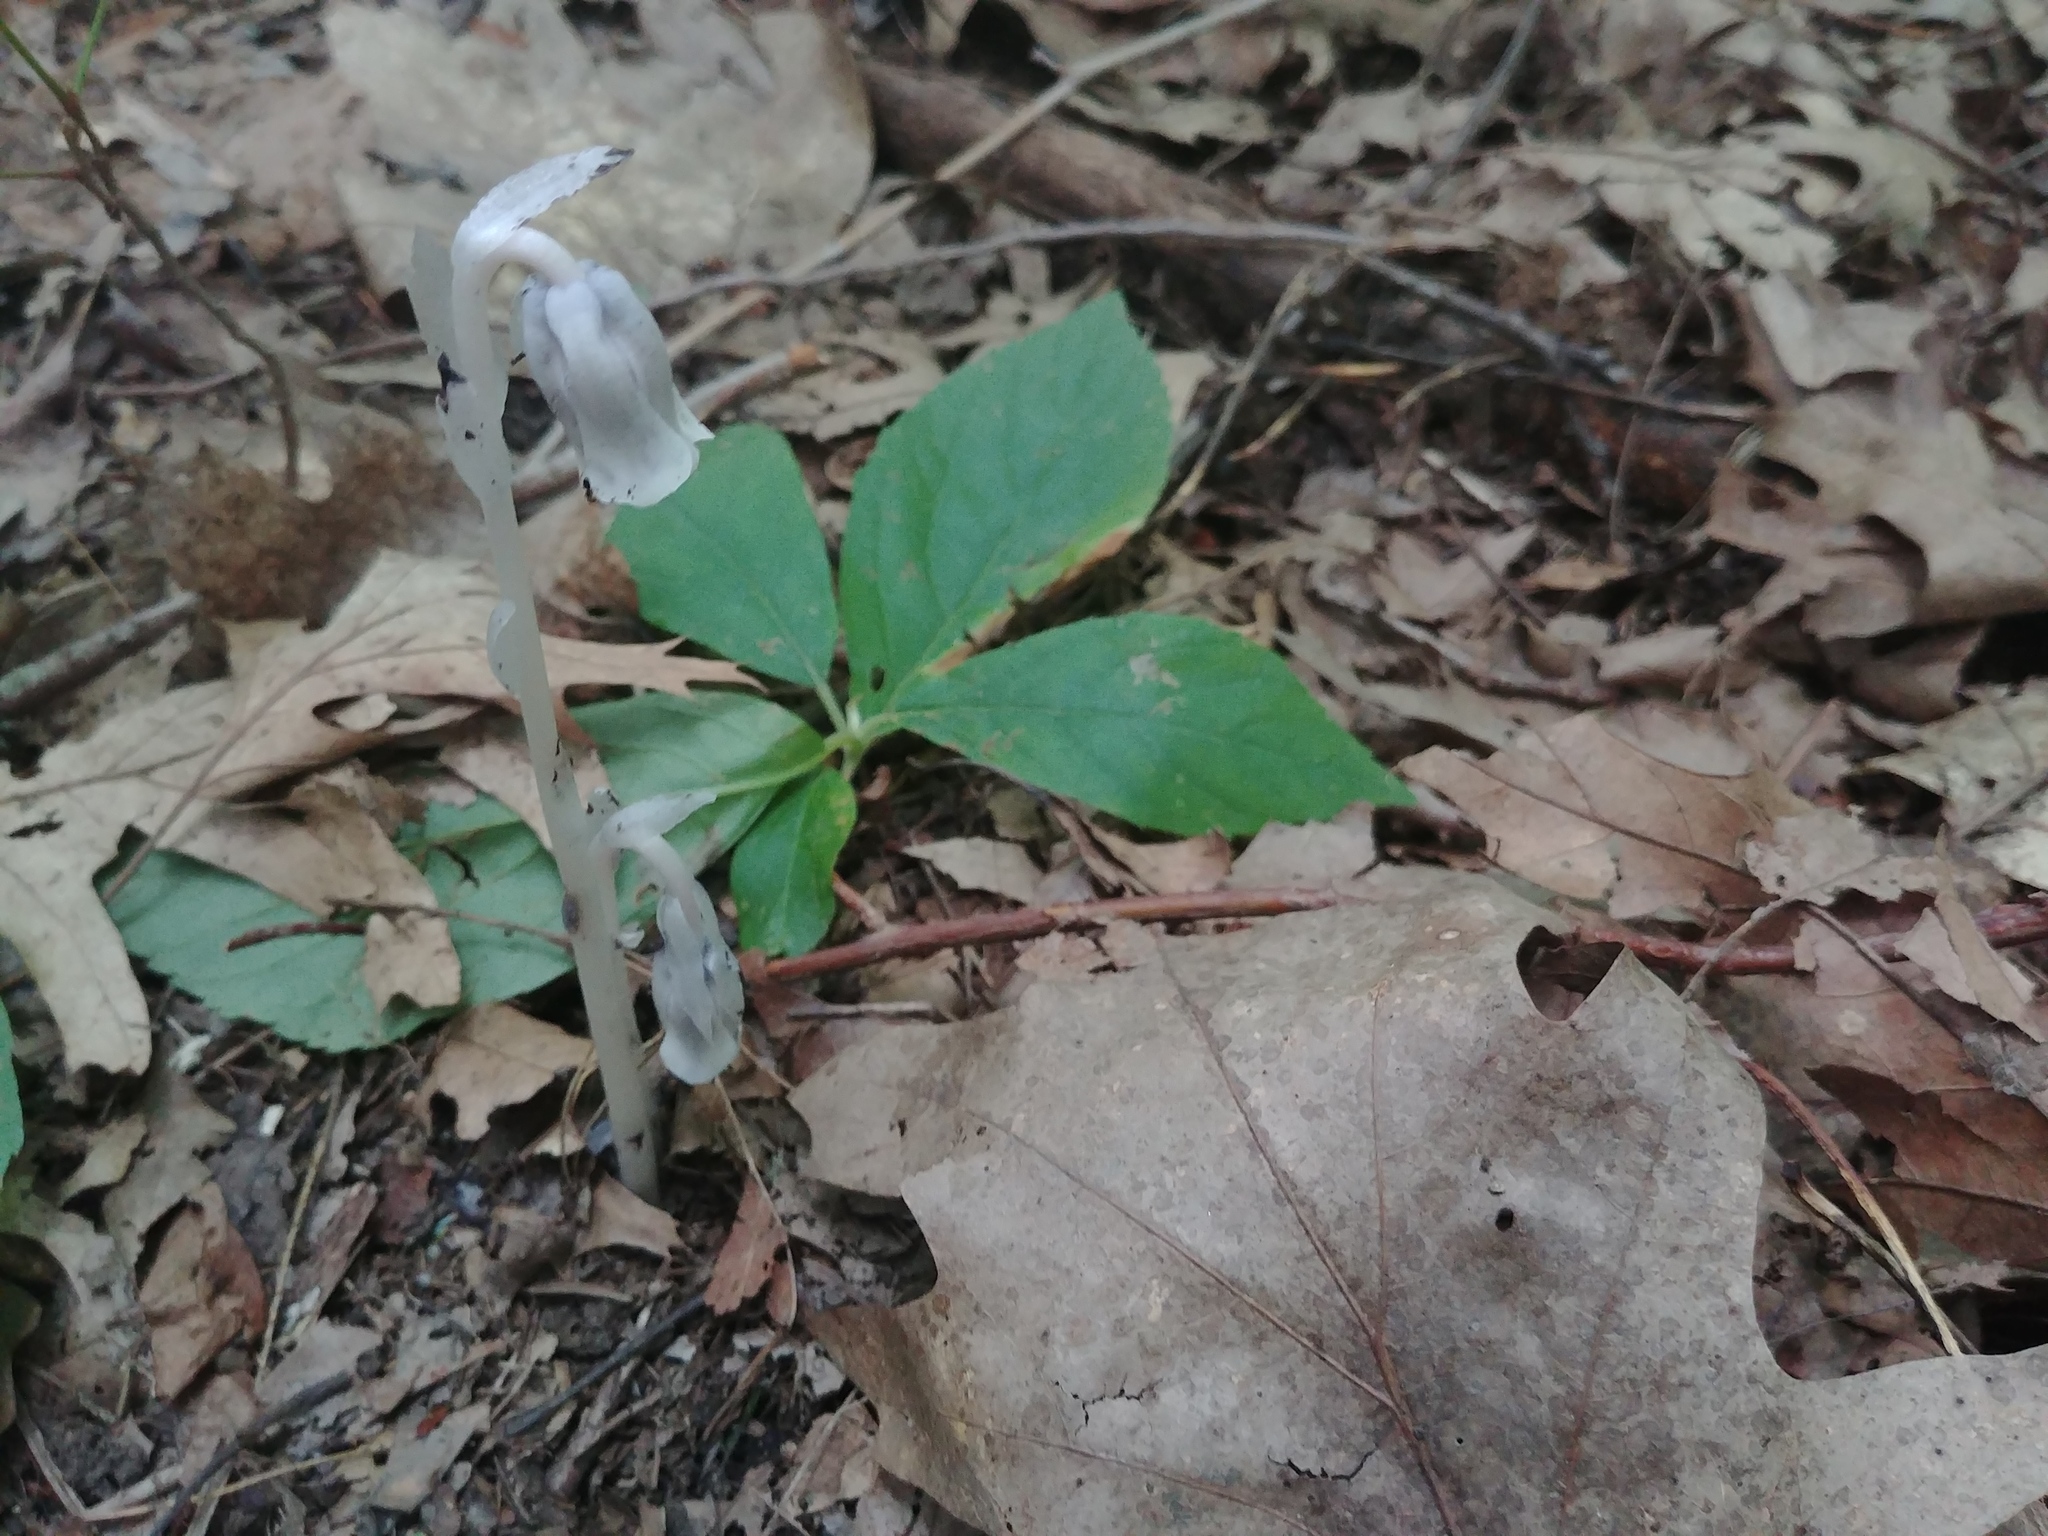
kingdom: Plantae
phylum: Tracheophyta
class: Magnoliopsida
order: Ericales
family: Ericaceae
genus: Monotropa
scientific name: Monotropa uniflora
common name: Convulsion root
